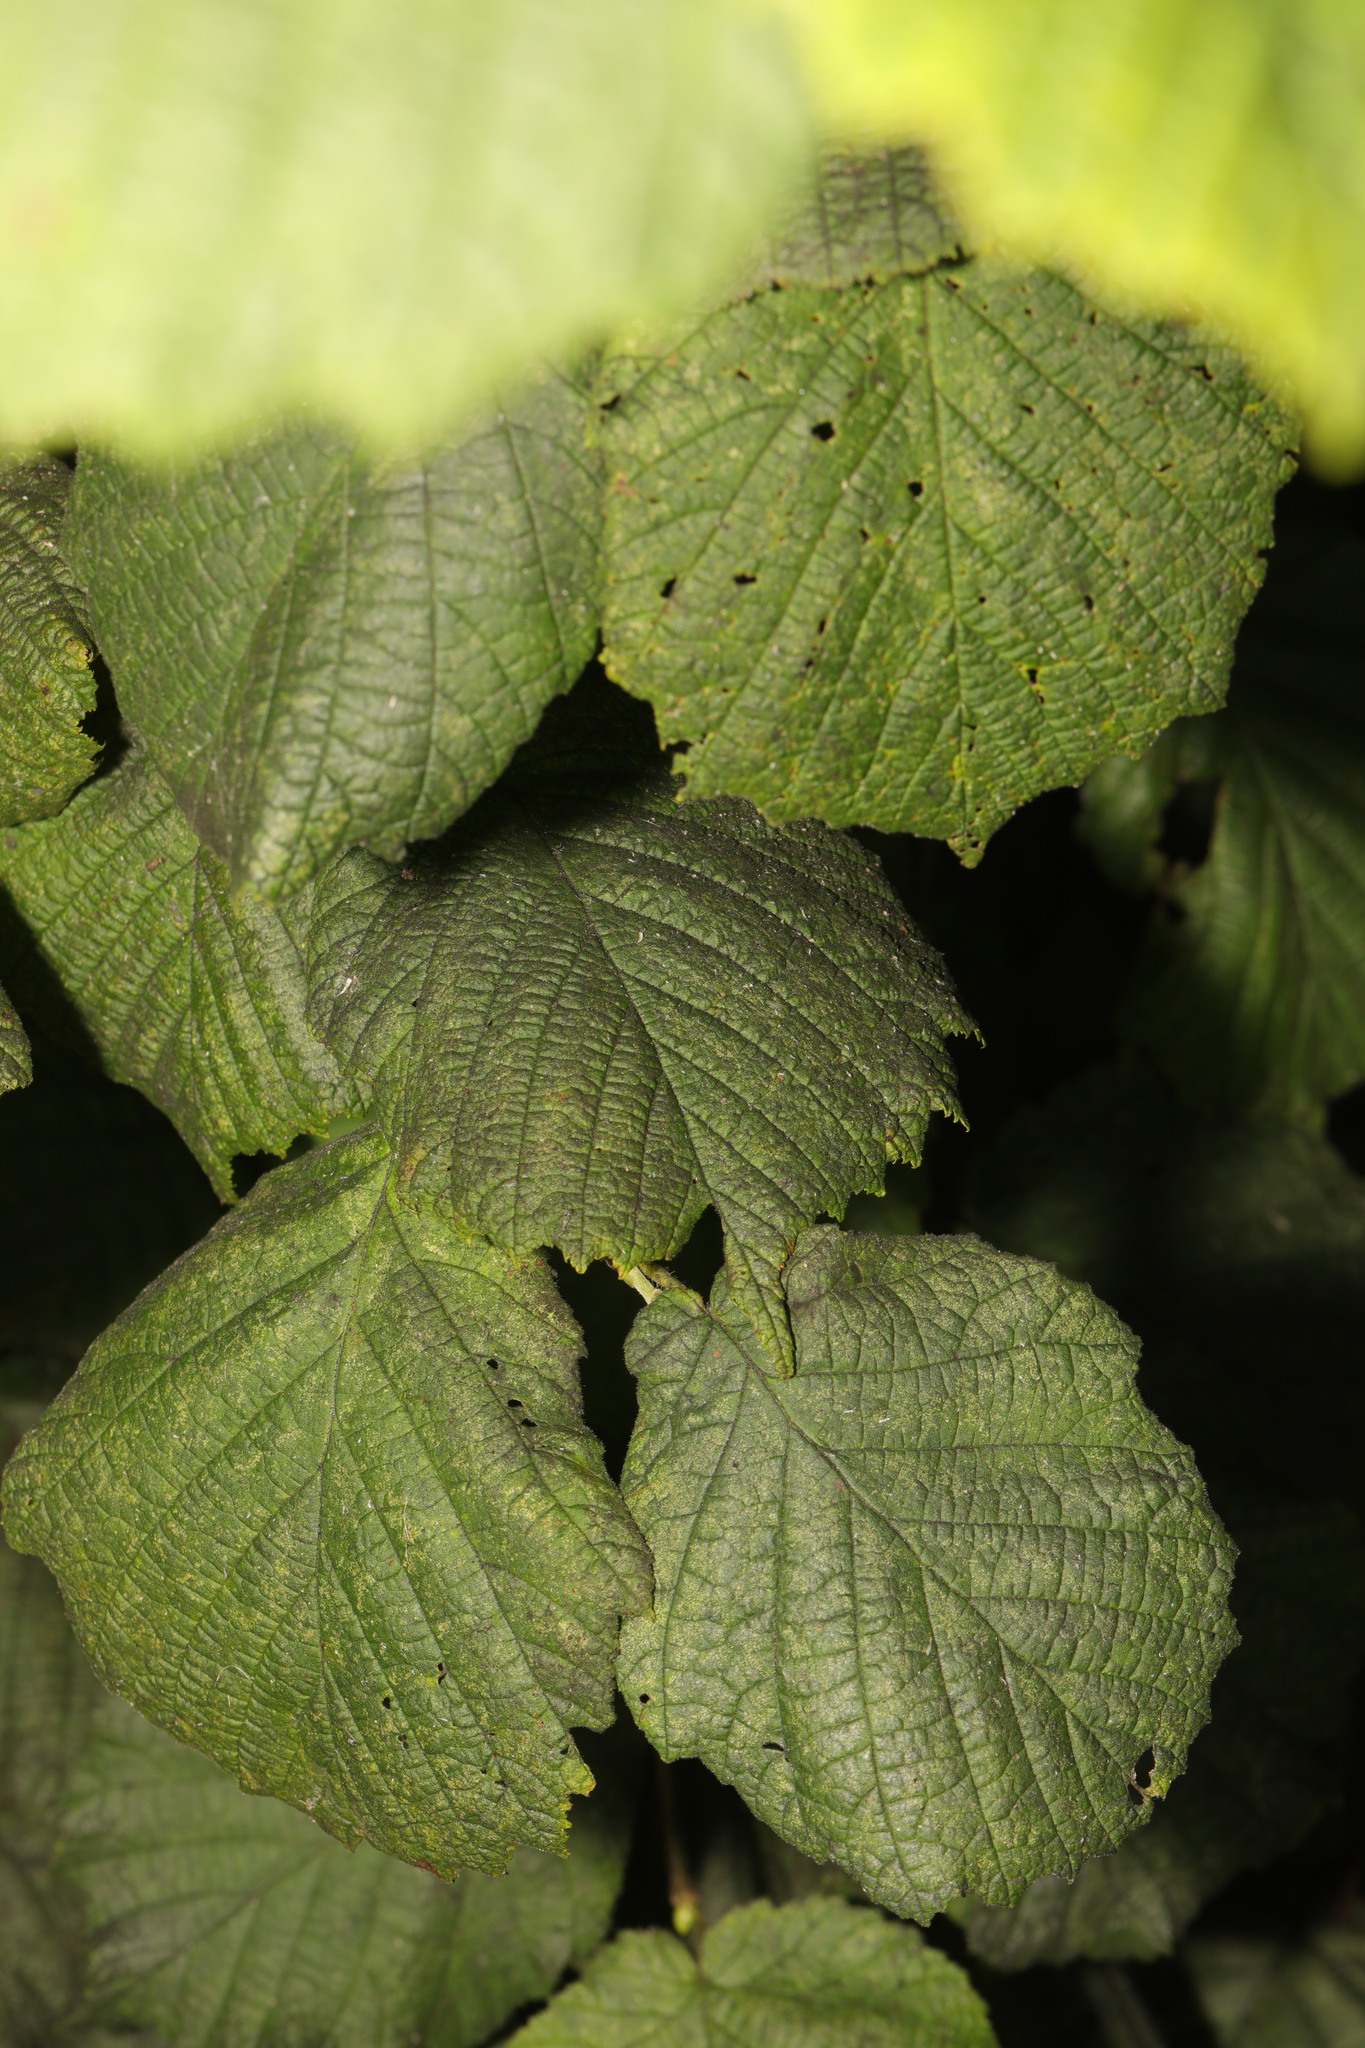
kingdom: Plantae
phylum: Tracheophyta
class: Magnoliopsida
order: Fagales
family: Betulaceae
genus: Corylus
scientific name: Corylus avellana
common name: European hazel
